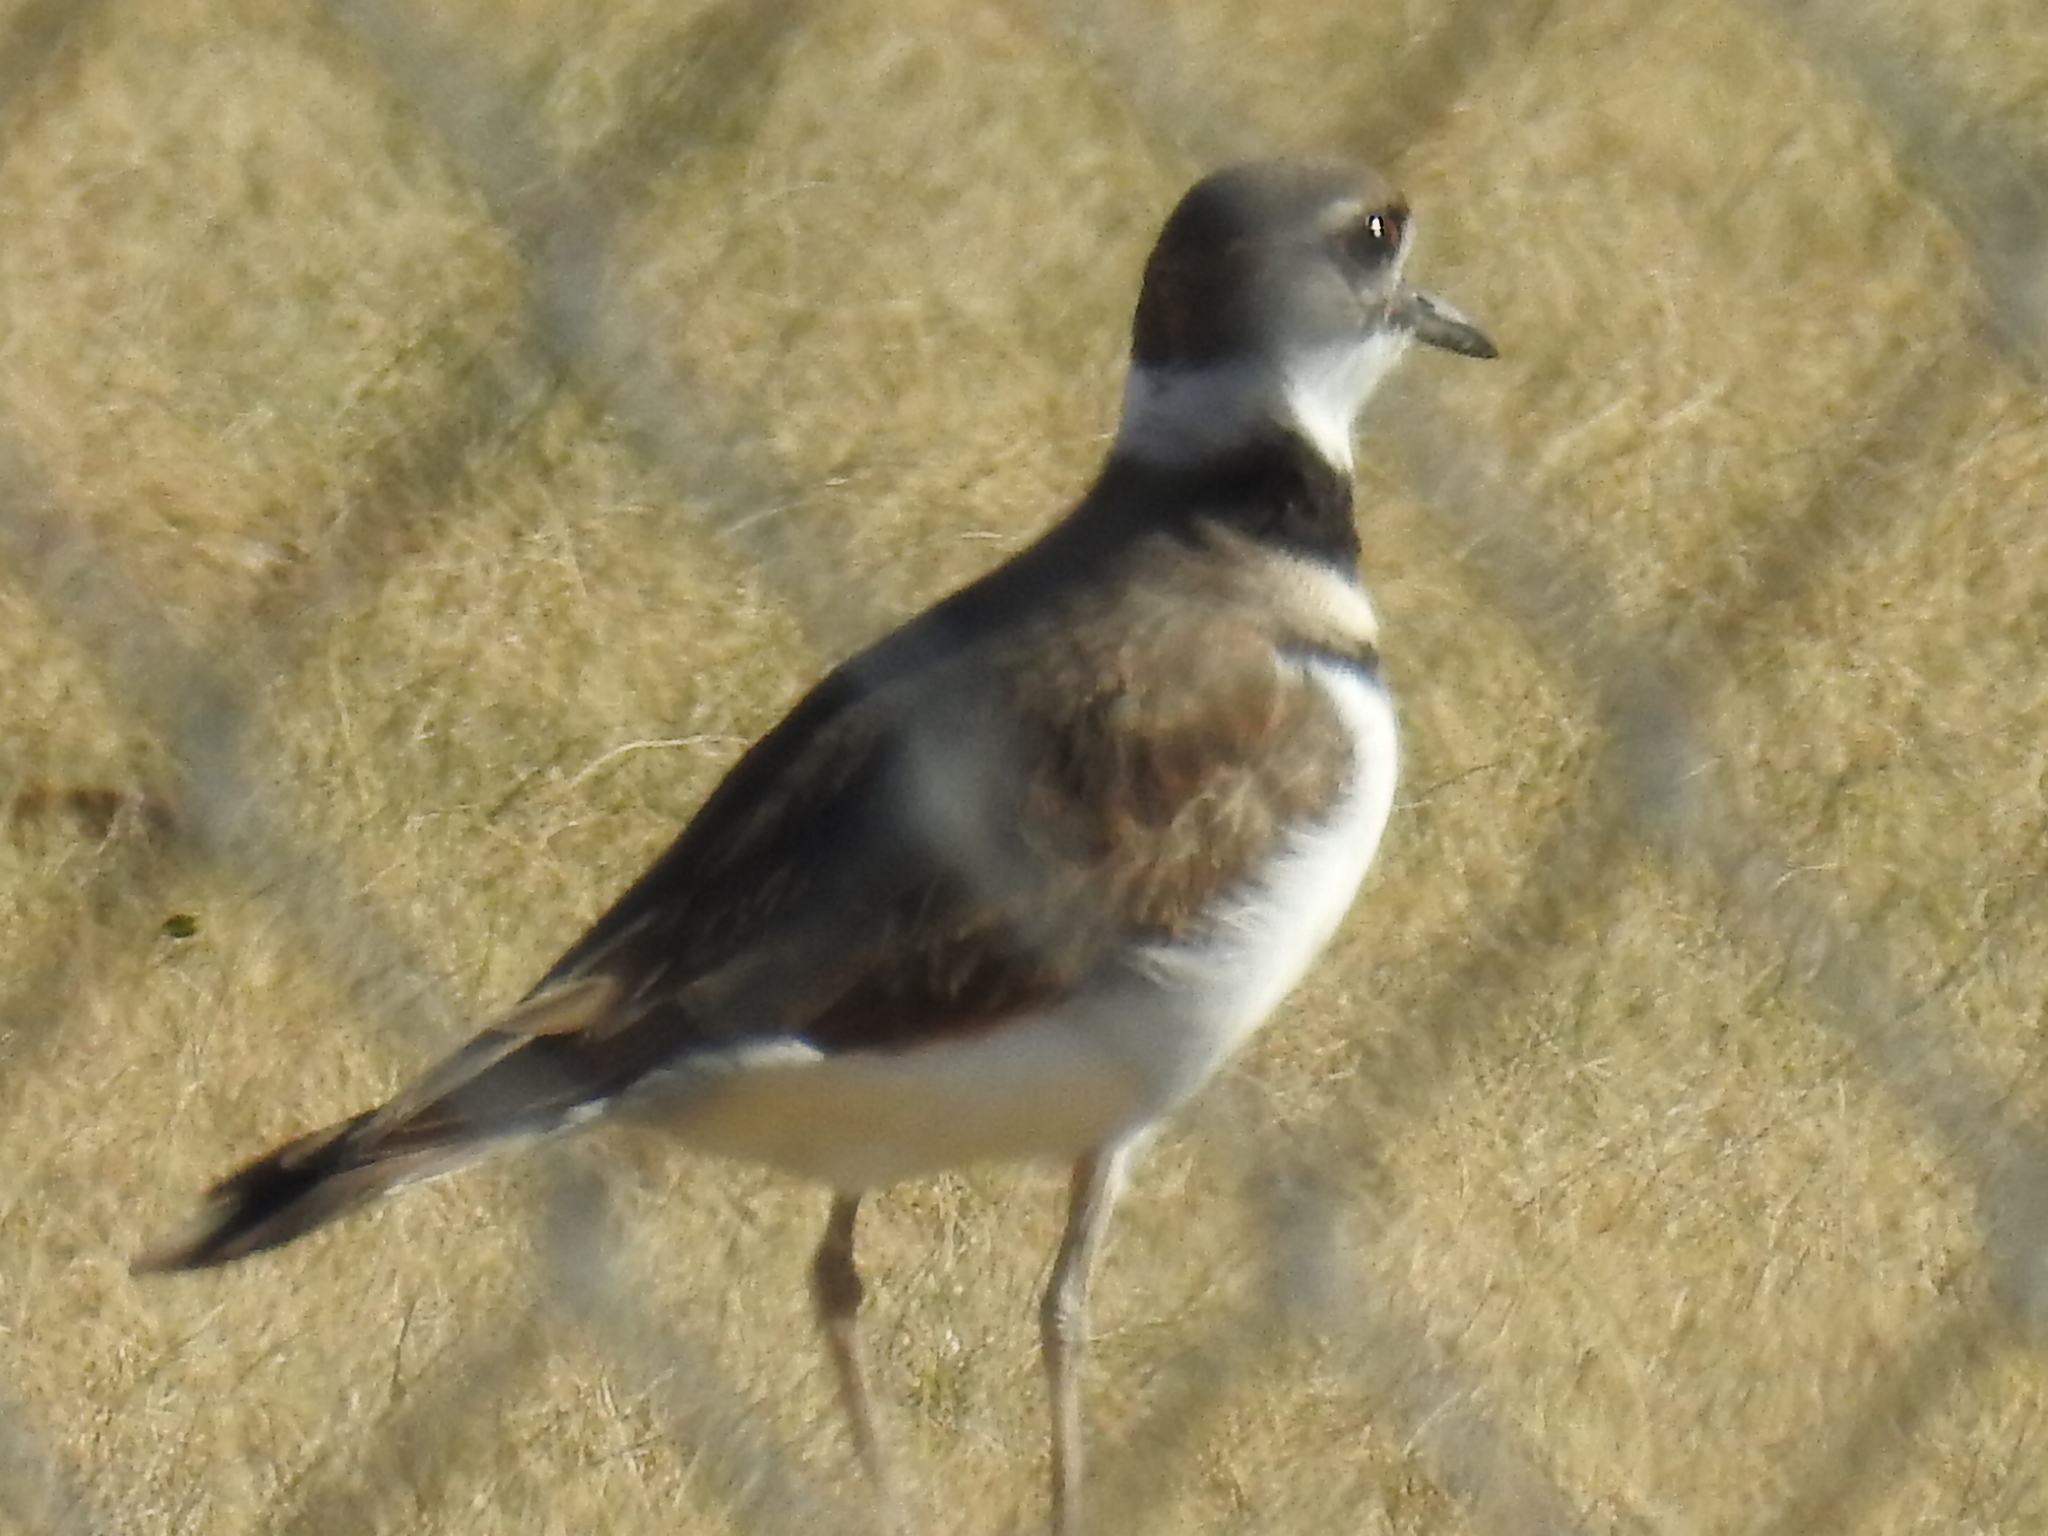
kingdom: Animalia
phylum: Chordata
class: Aves
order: Charadriiformes
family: Charadriidae
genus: Charadrius
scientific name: Charadrius vociferus
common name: Killdeer
